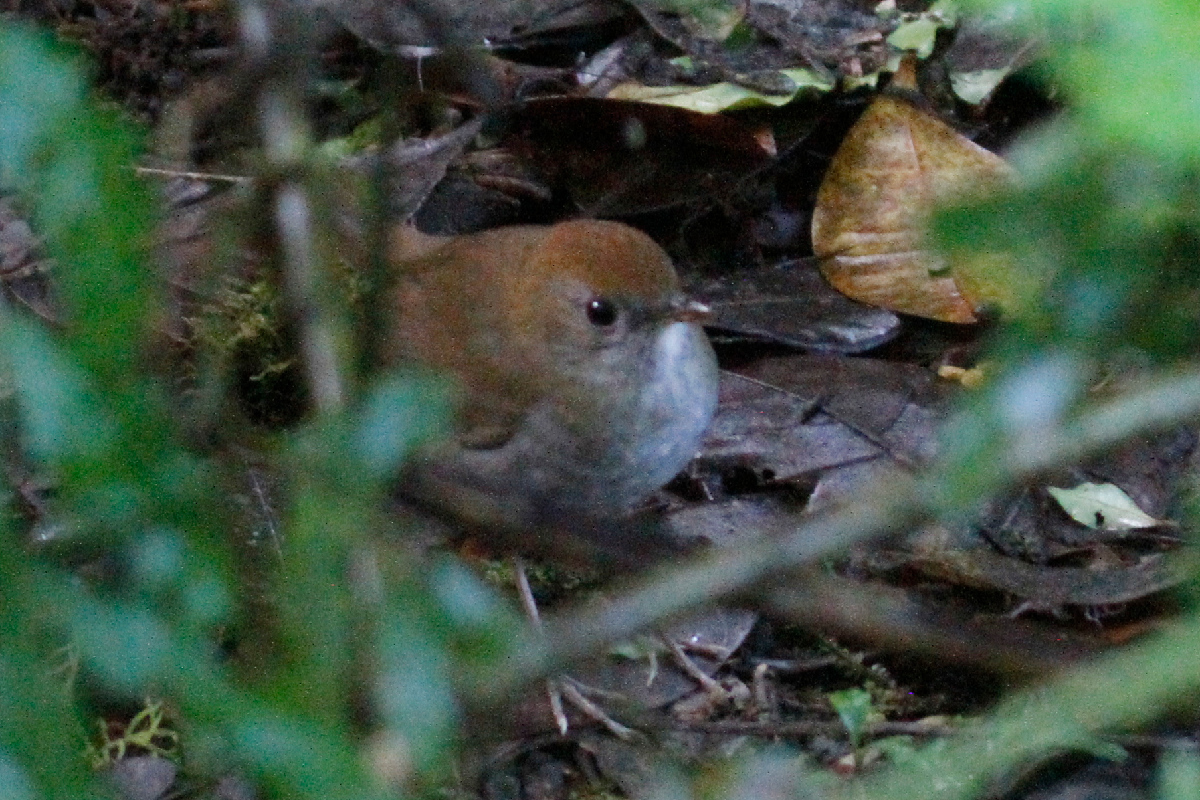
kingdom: Animalia
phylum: Chordata
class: Aves
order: Passeriformes
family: Turdidae
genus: Catharus
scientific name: Catharus frantzii
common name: Ruddy-capped nightingale-thrush
